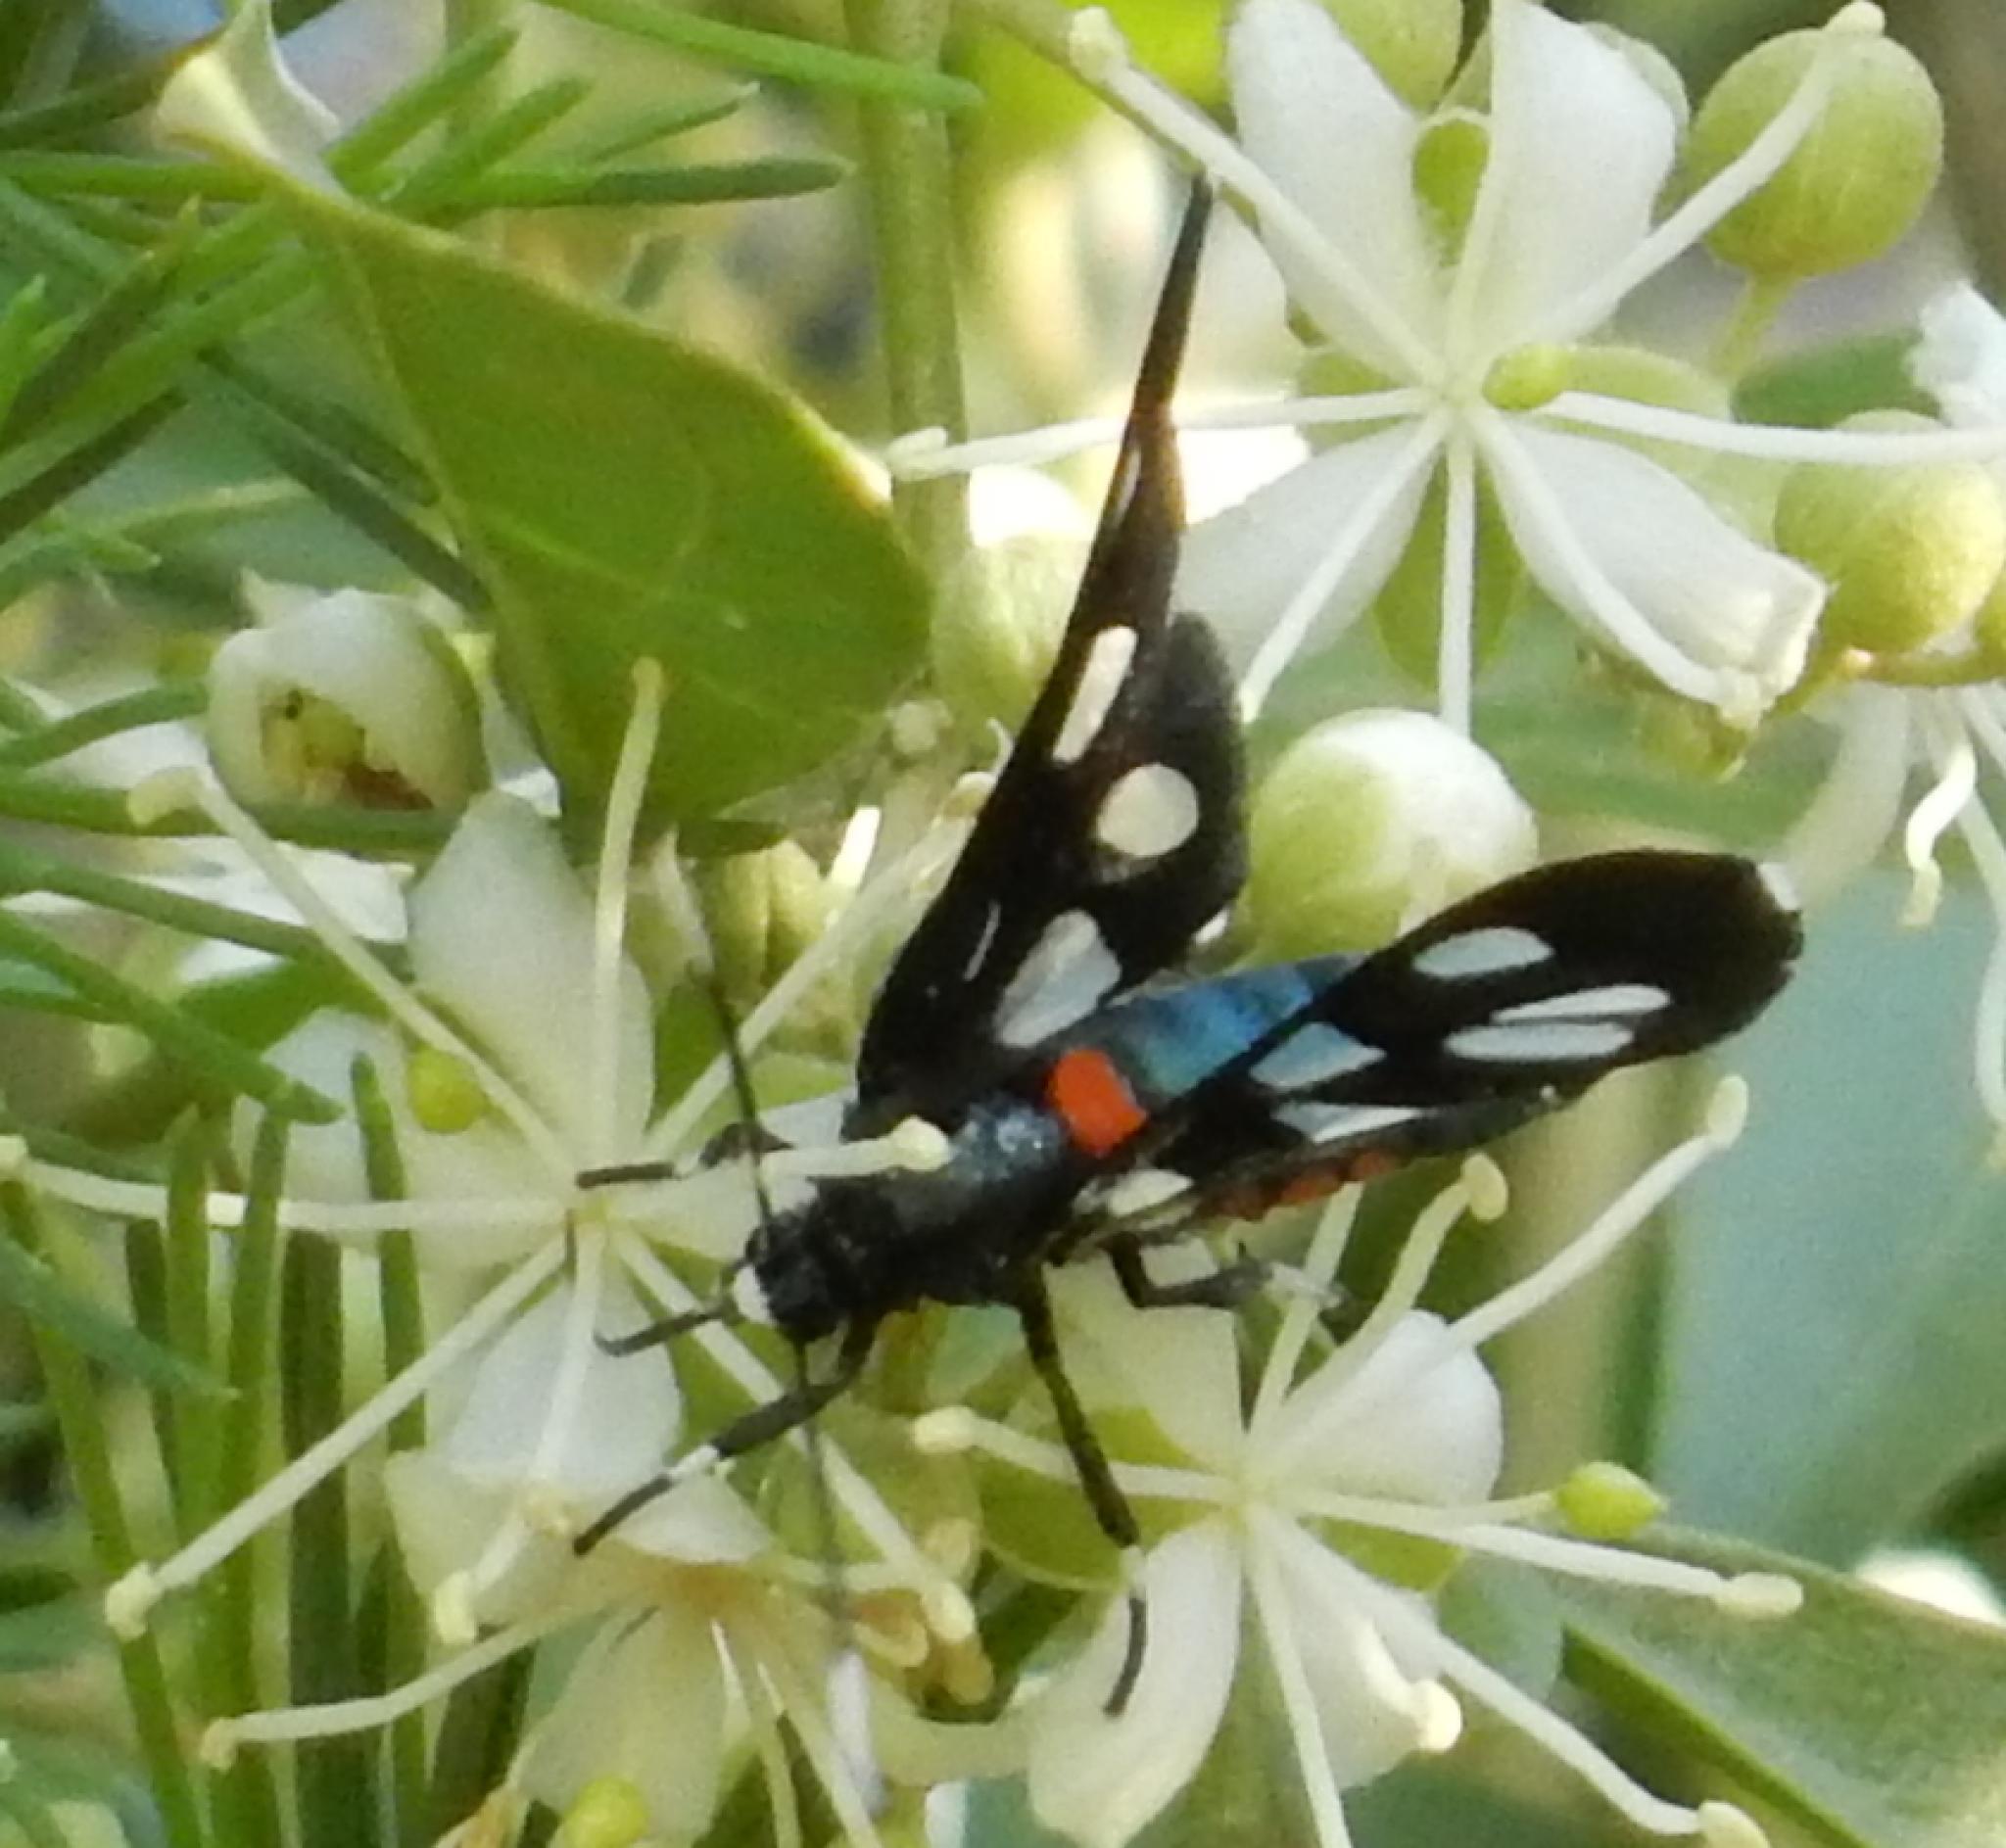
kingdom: Animalia
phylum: Arthropoda
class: Insecta
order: Lepidoptera
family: Erebidae
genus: Amata
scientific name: Amata kuhlweini
